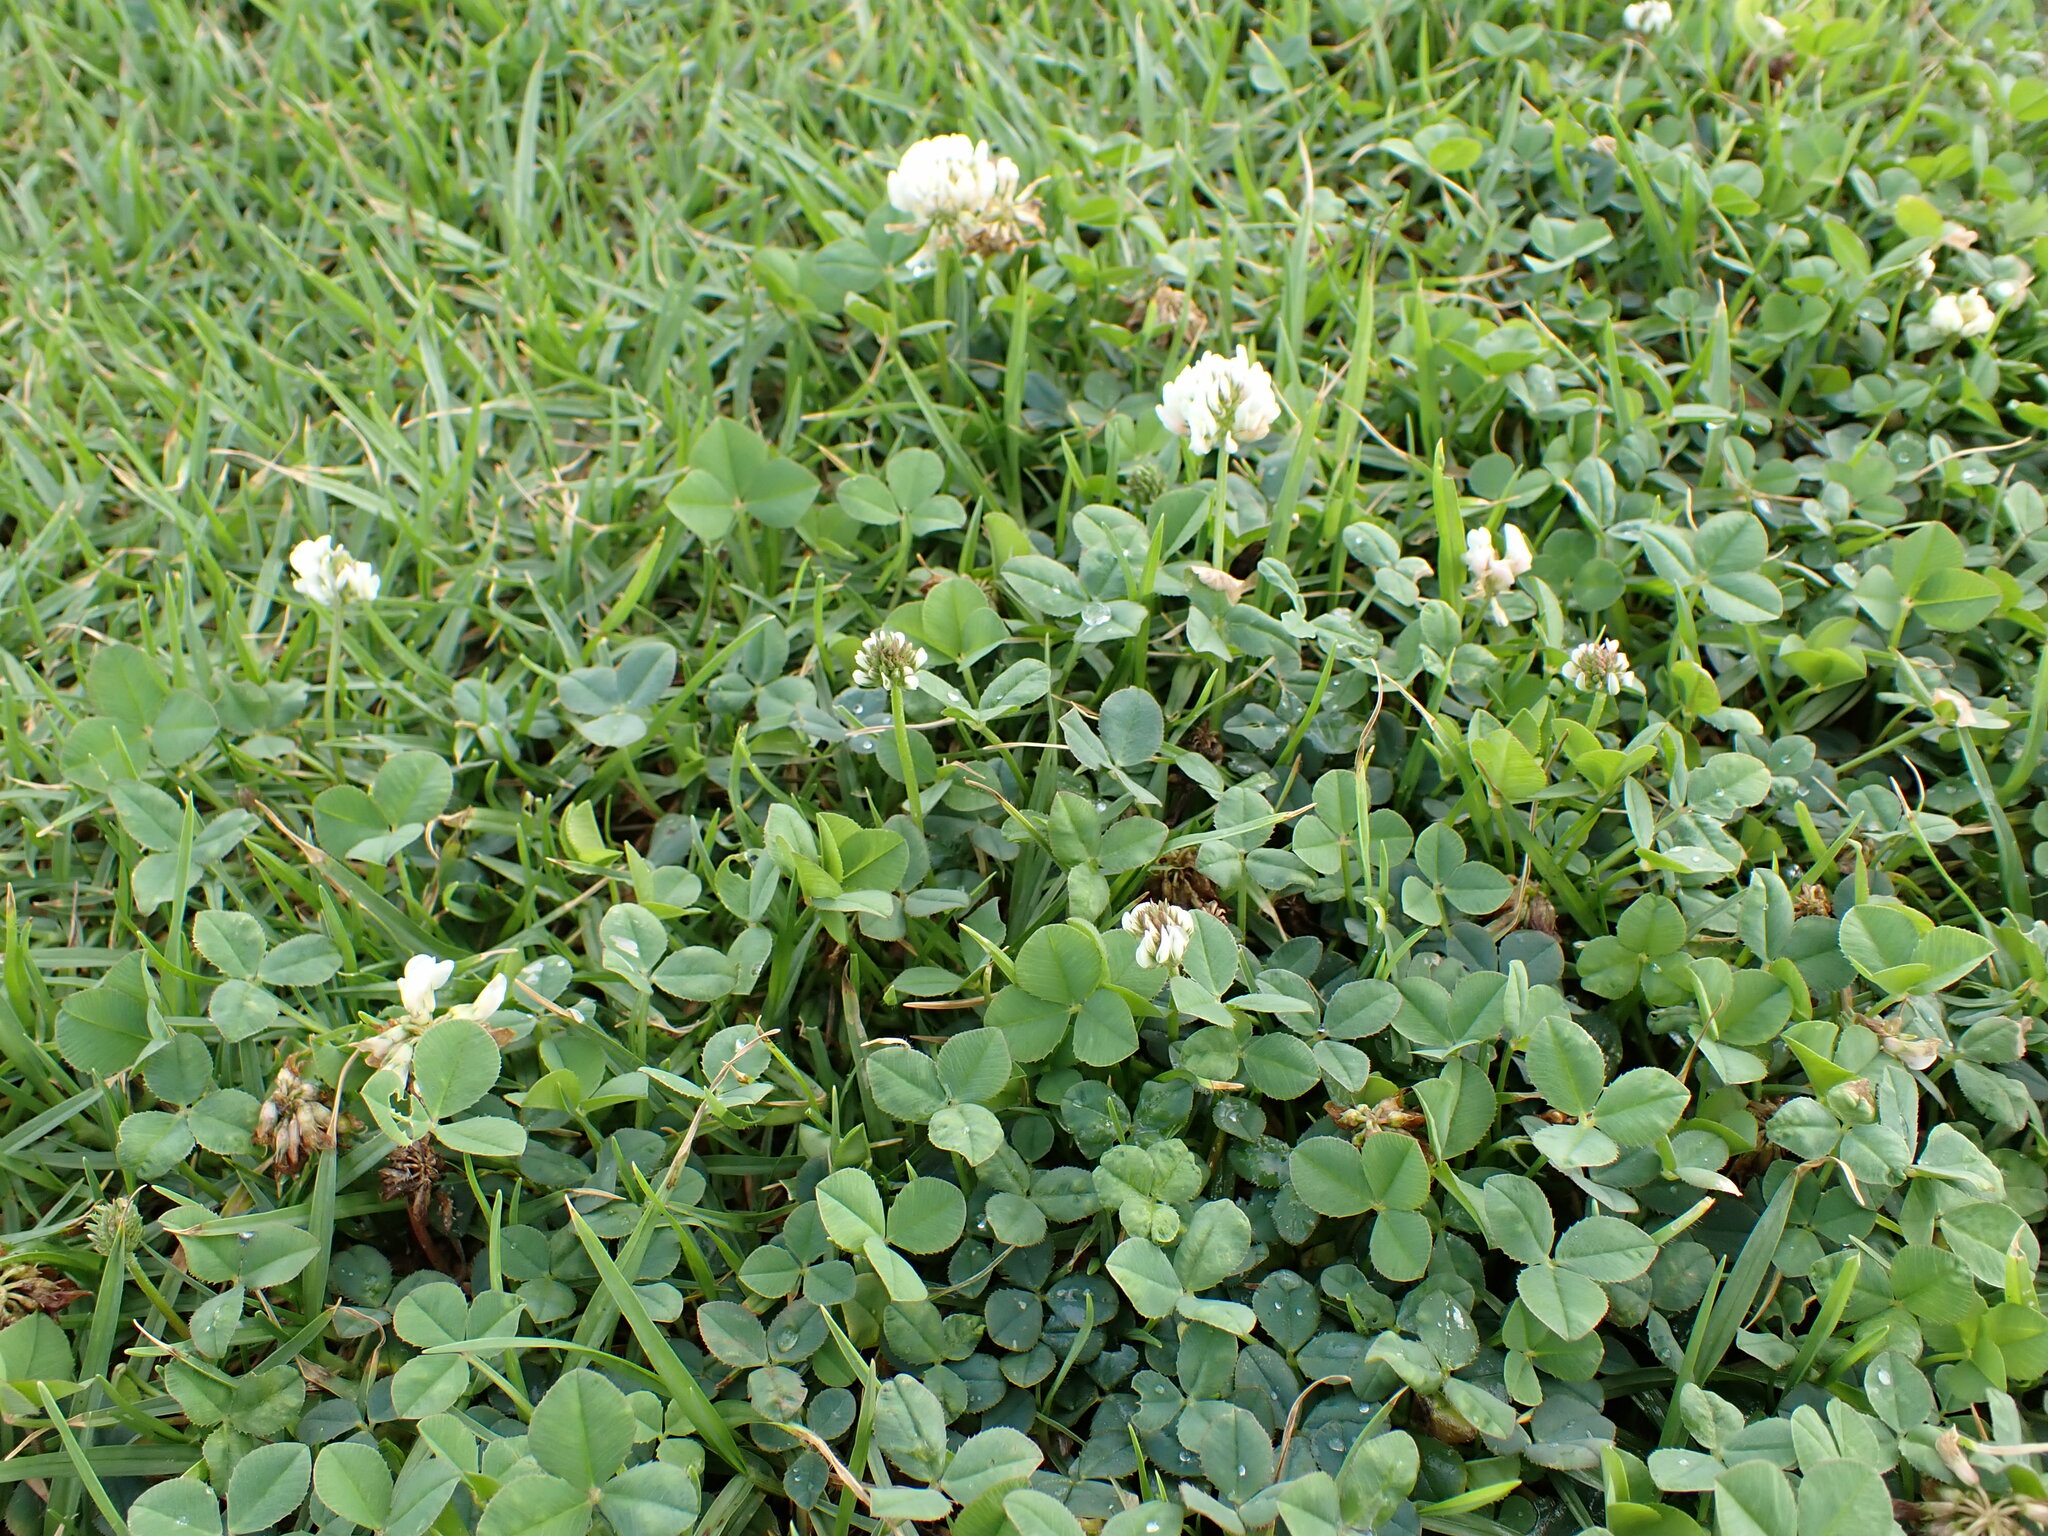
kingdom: Plantae
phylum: Tracheophyta
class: Magnoliopsida
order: Fabales
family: Fabaceae
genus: Trifolium
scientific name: Trifolium repens
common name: White clover
